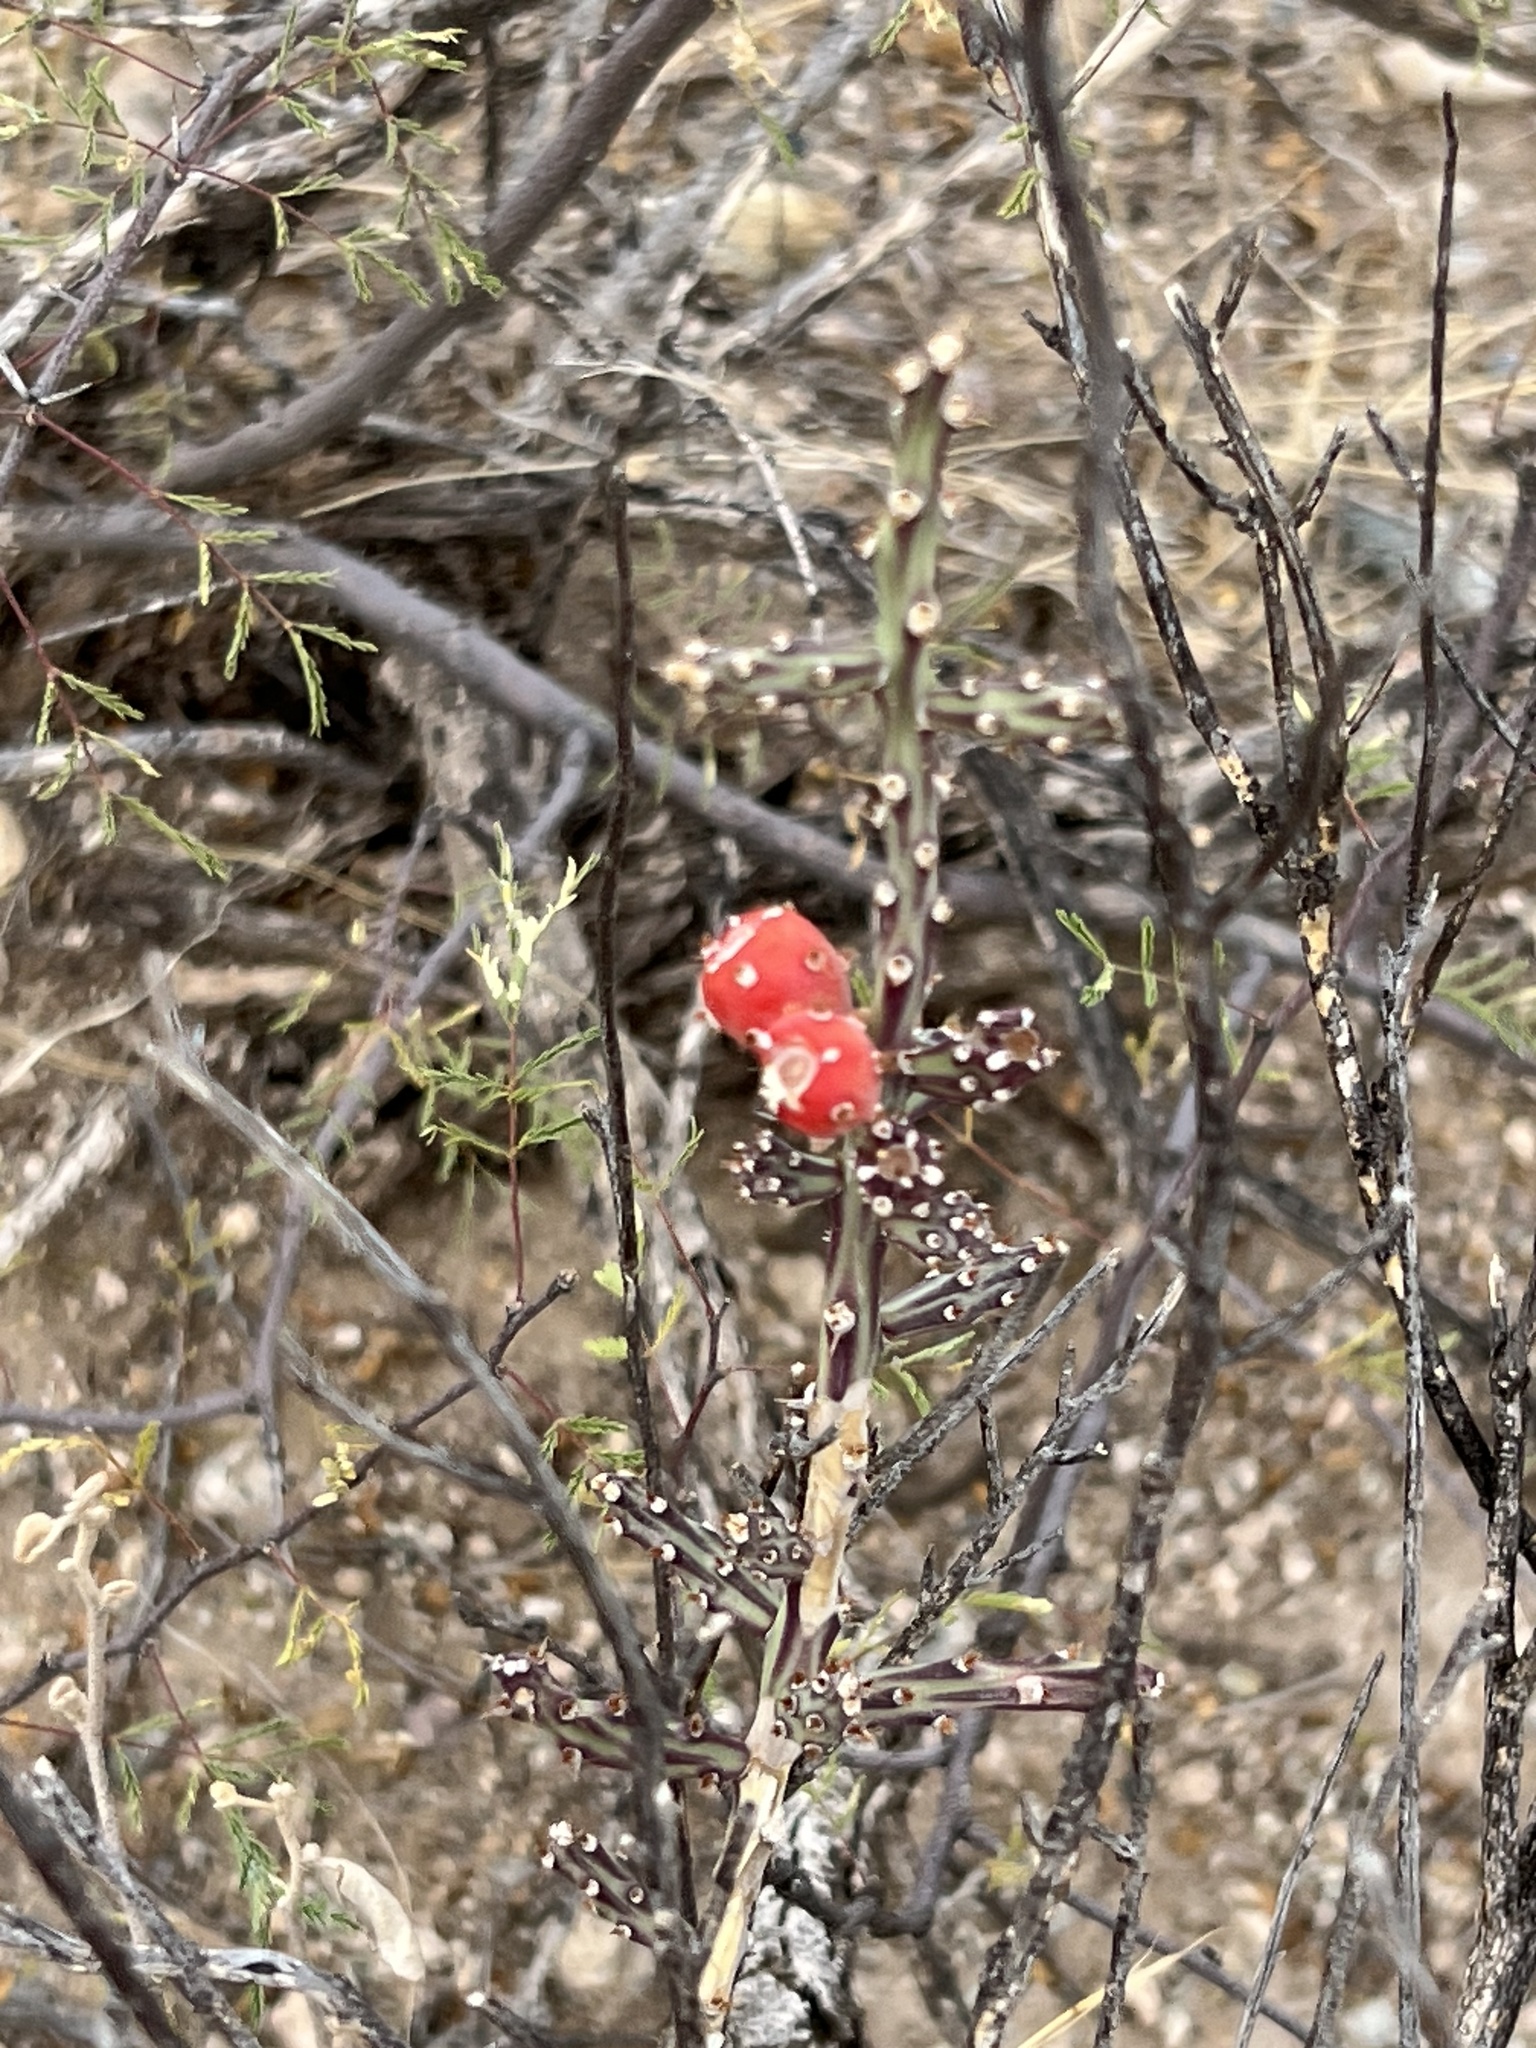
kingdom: Plantae
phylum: Tracheophyta
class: Magnoliopsida
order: Caryophyllales
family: Cactaceae
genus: Cylindropuntia
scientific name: Cylindropuntia leptocaulis
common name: Christmas cactus
